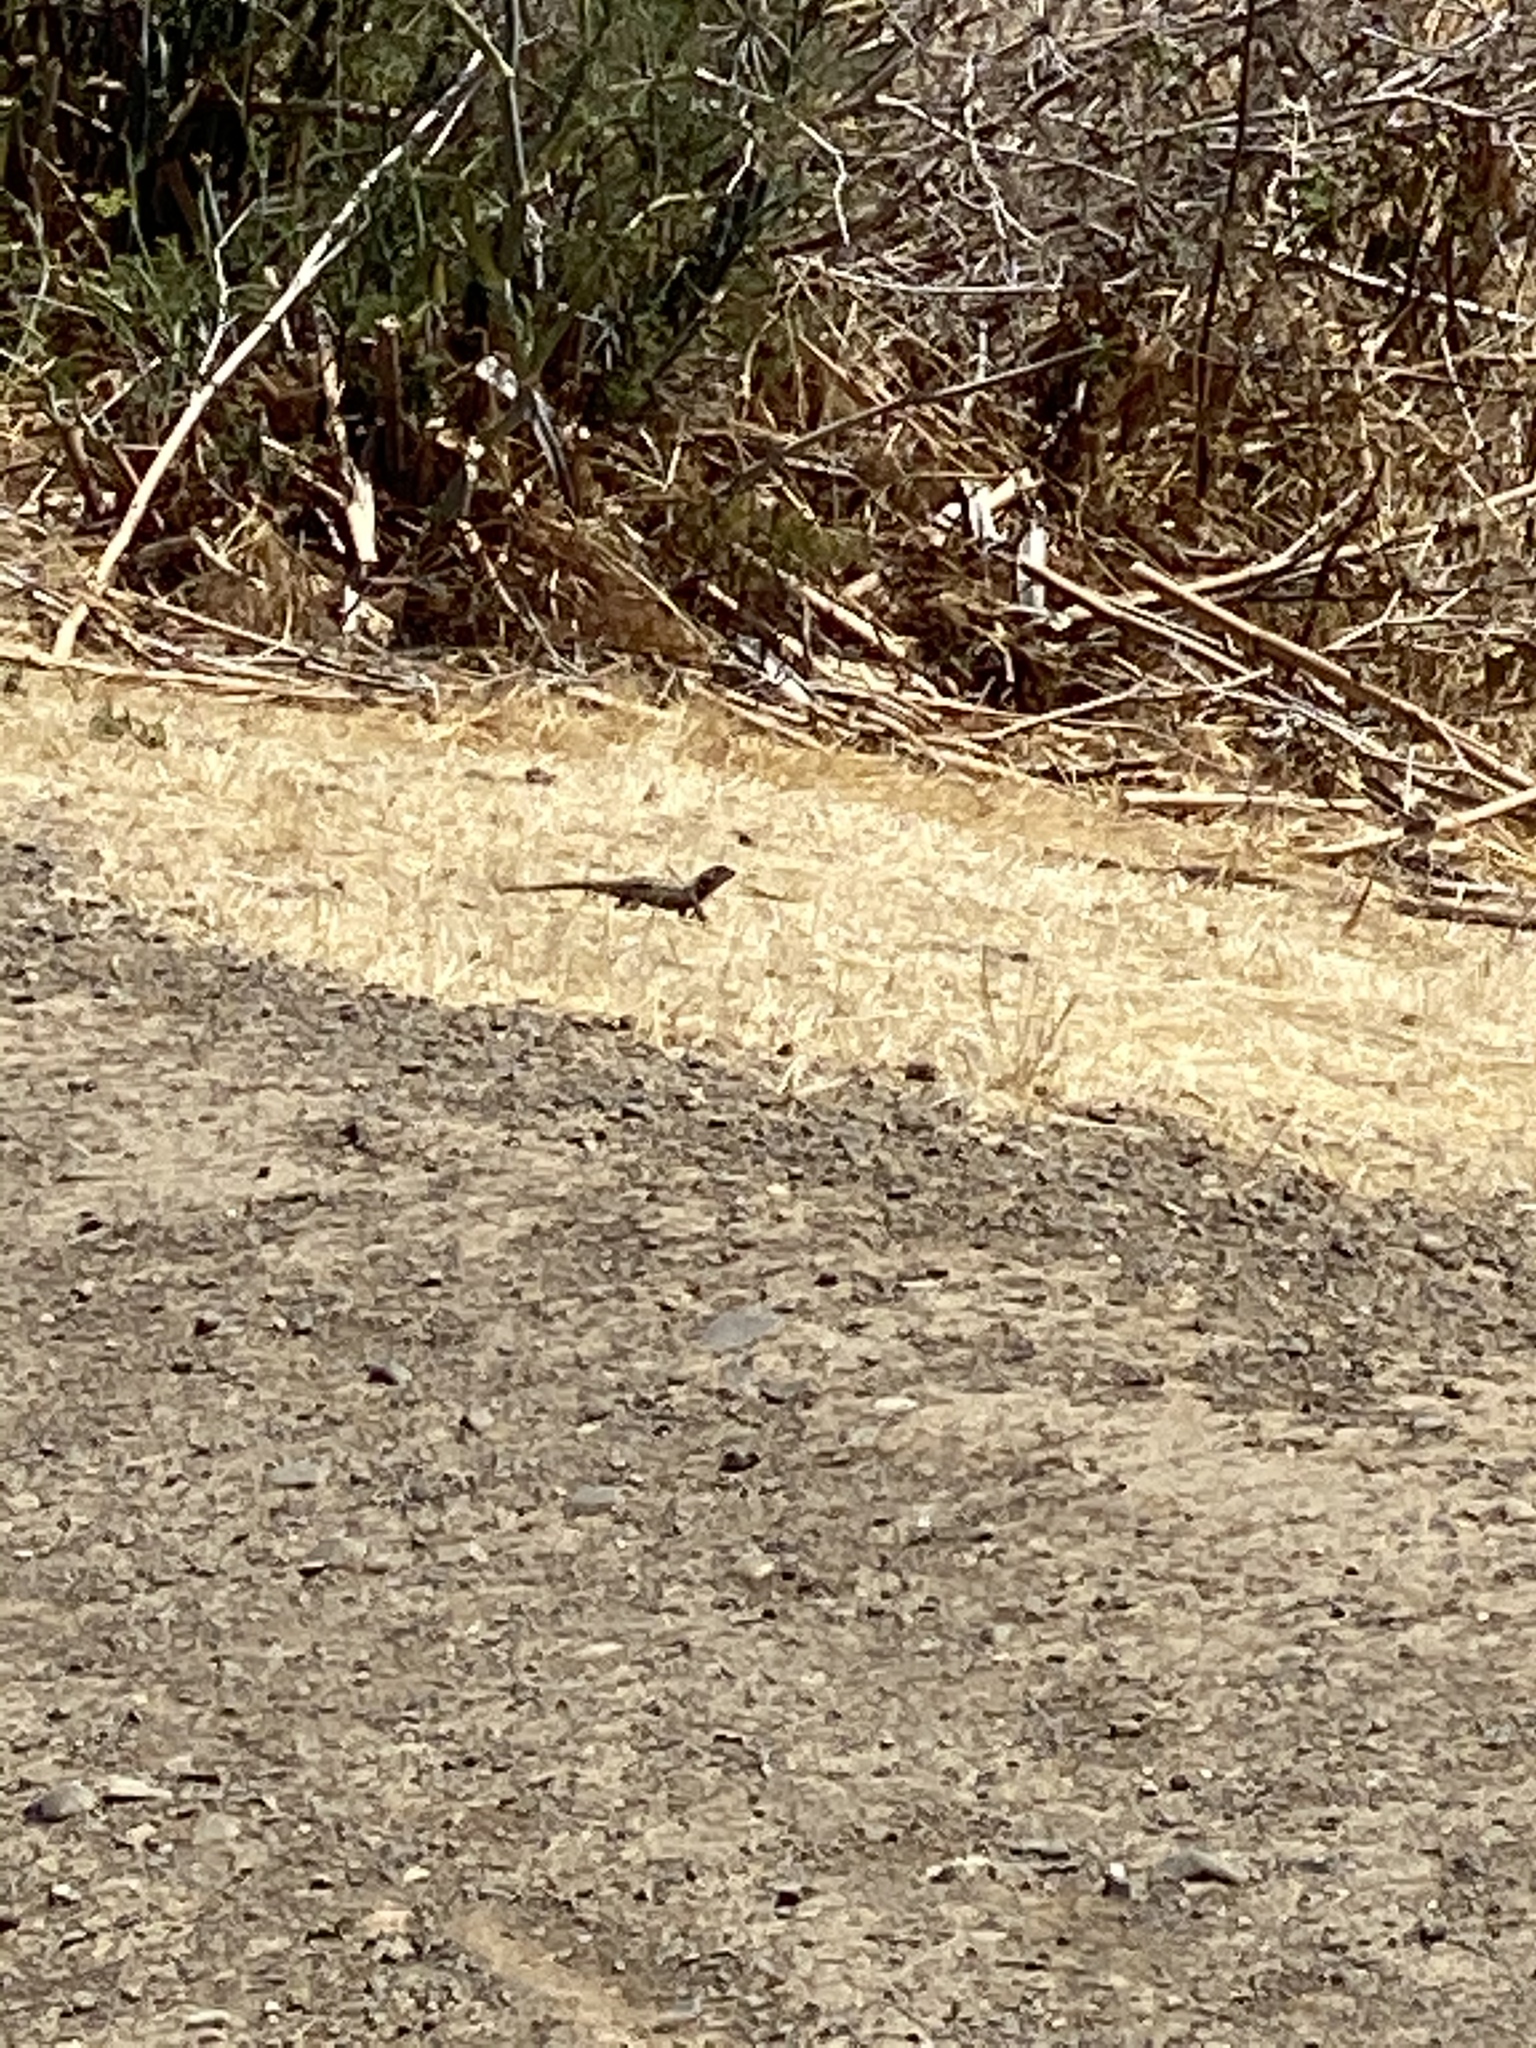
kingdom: Animalia
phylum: Chordata
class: Squamata
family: Phrynosomatidae
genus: Sceloporus
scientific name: Sceloporus occidentalis
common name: Western fence lizard
